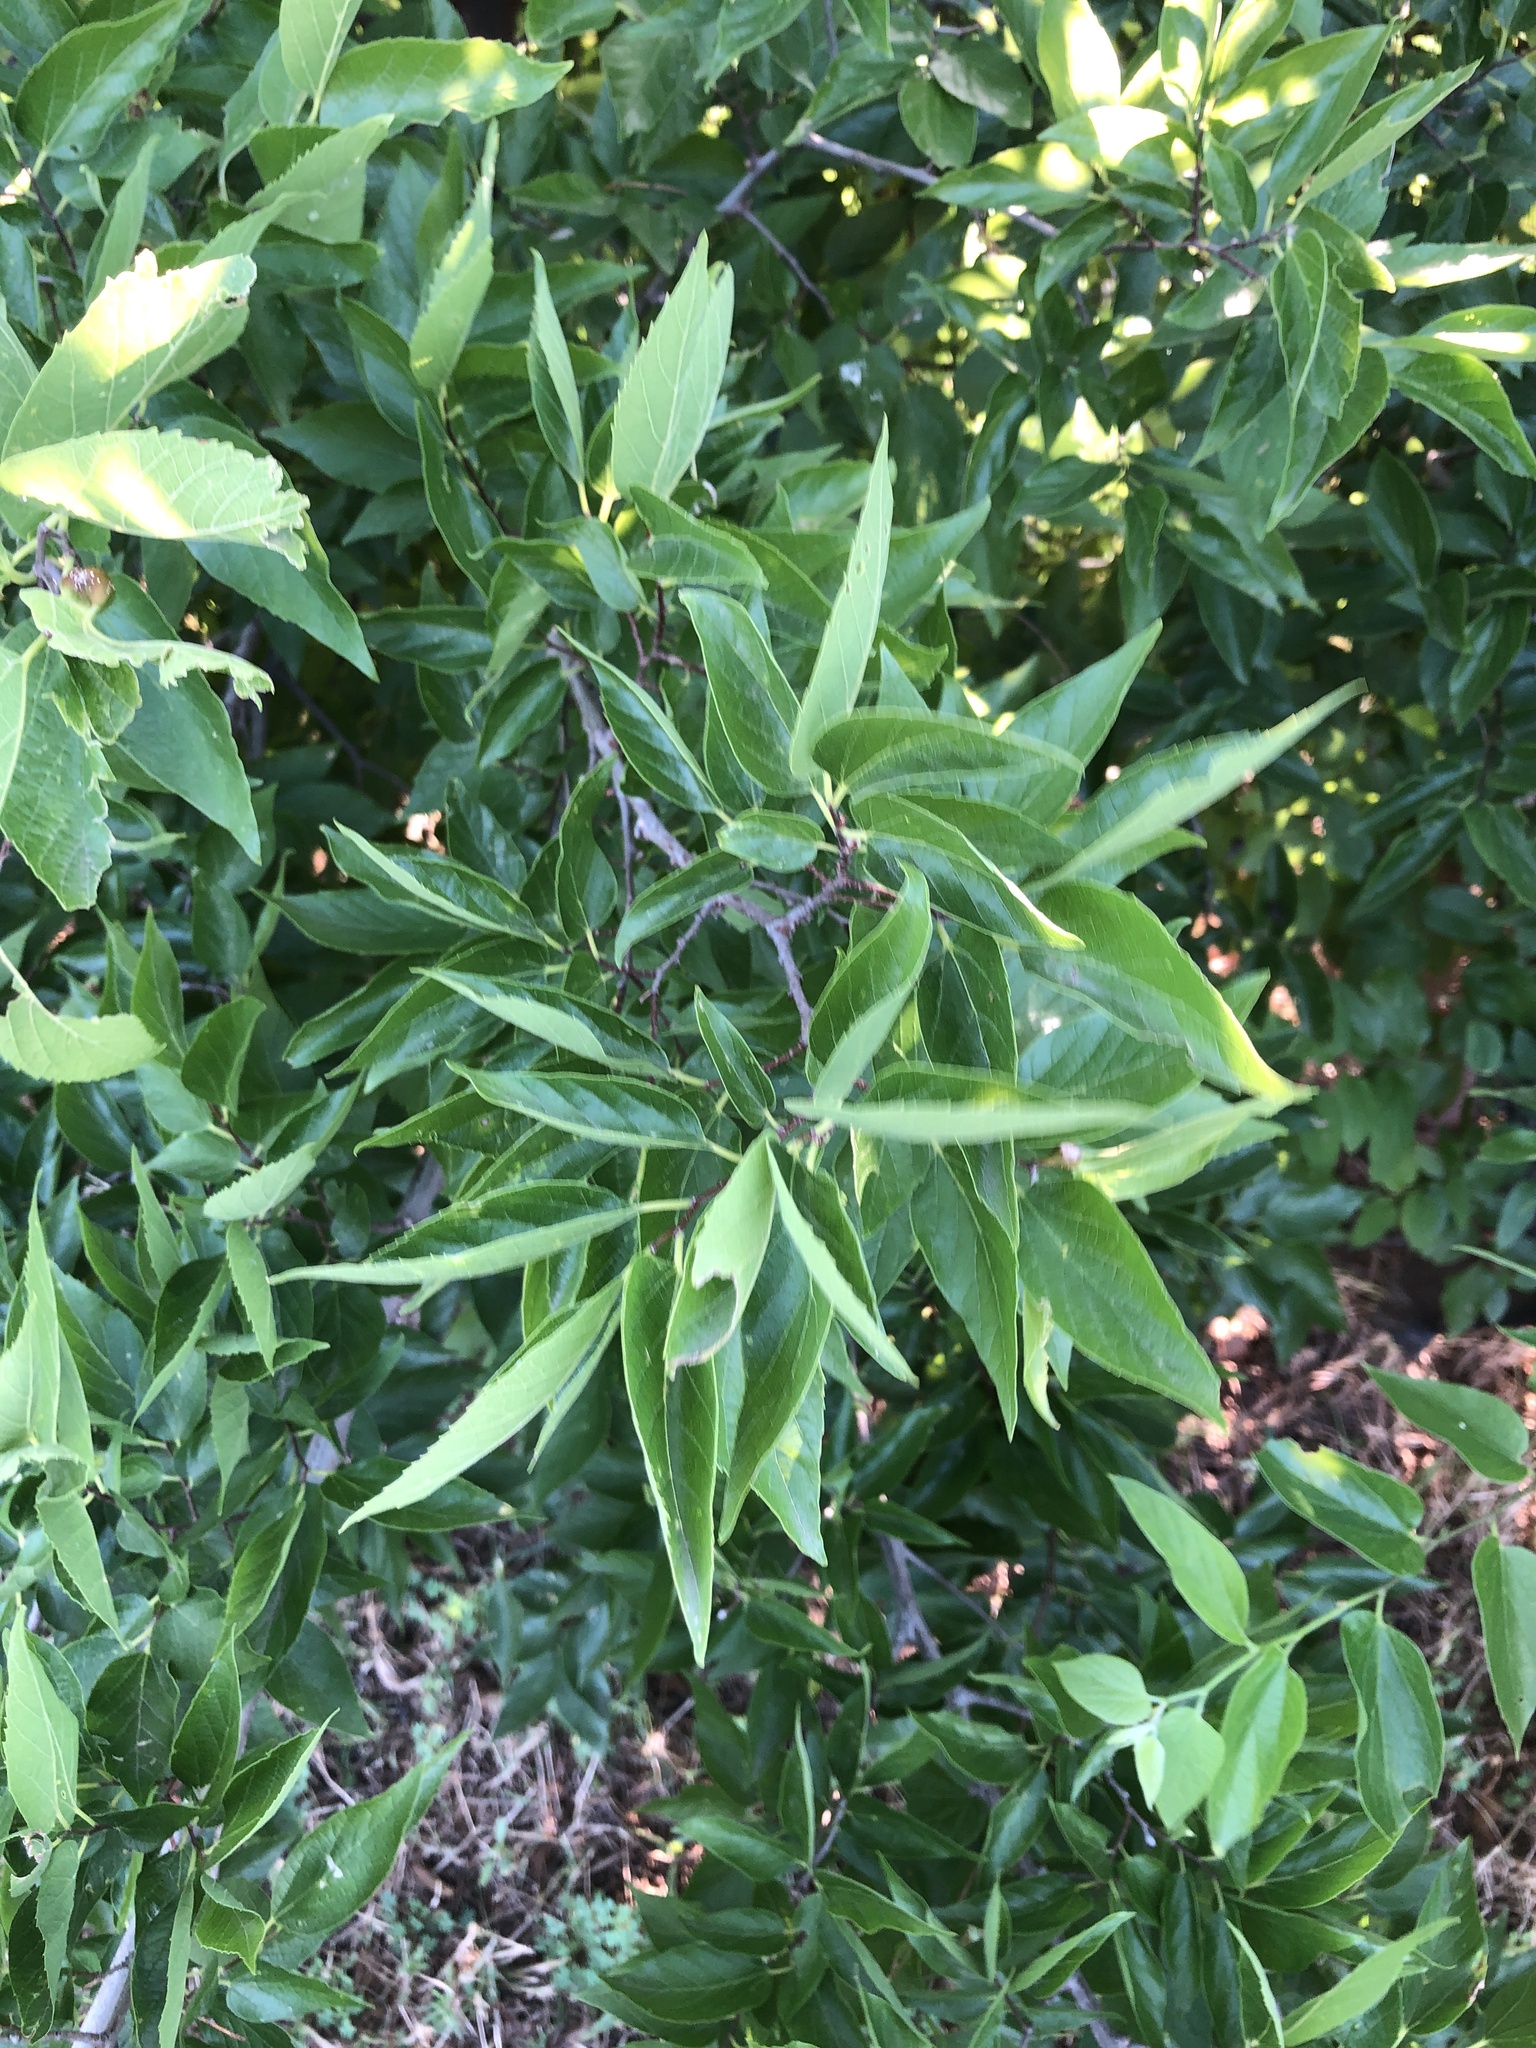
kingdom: Plantae
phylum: Tracheophyta
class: Magnoliopsida
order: Rosales
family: Cannabaceae
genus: Celtis
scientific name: Celtis laevigata
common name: Sugarberry
